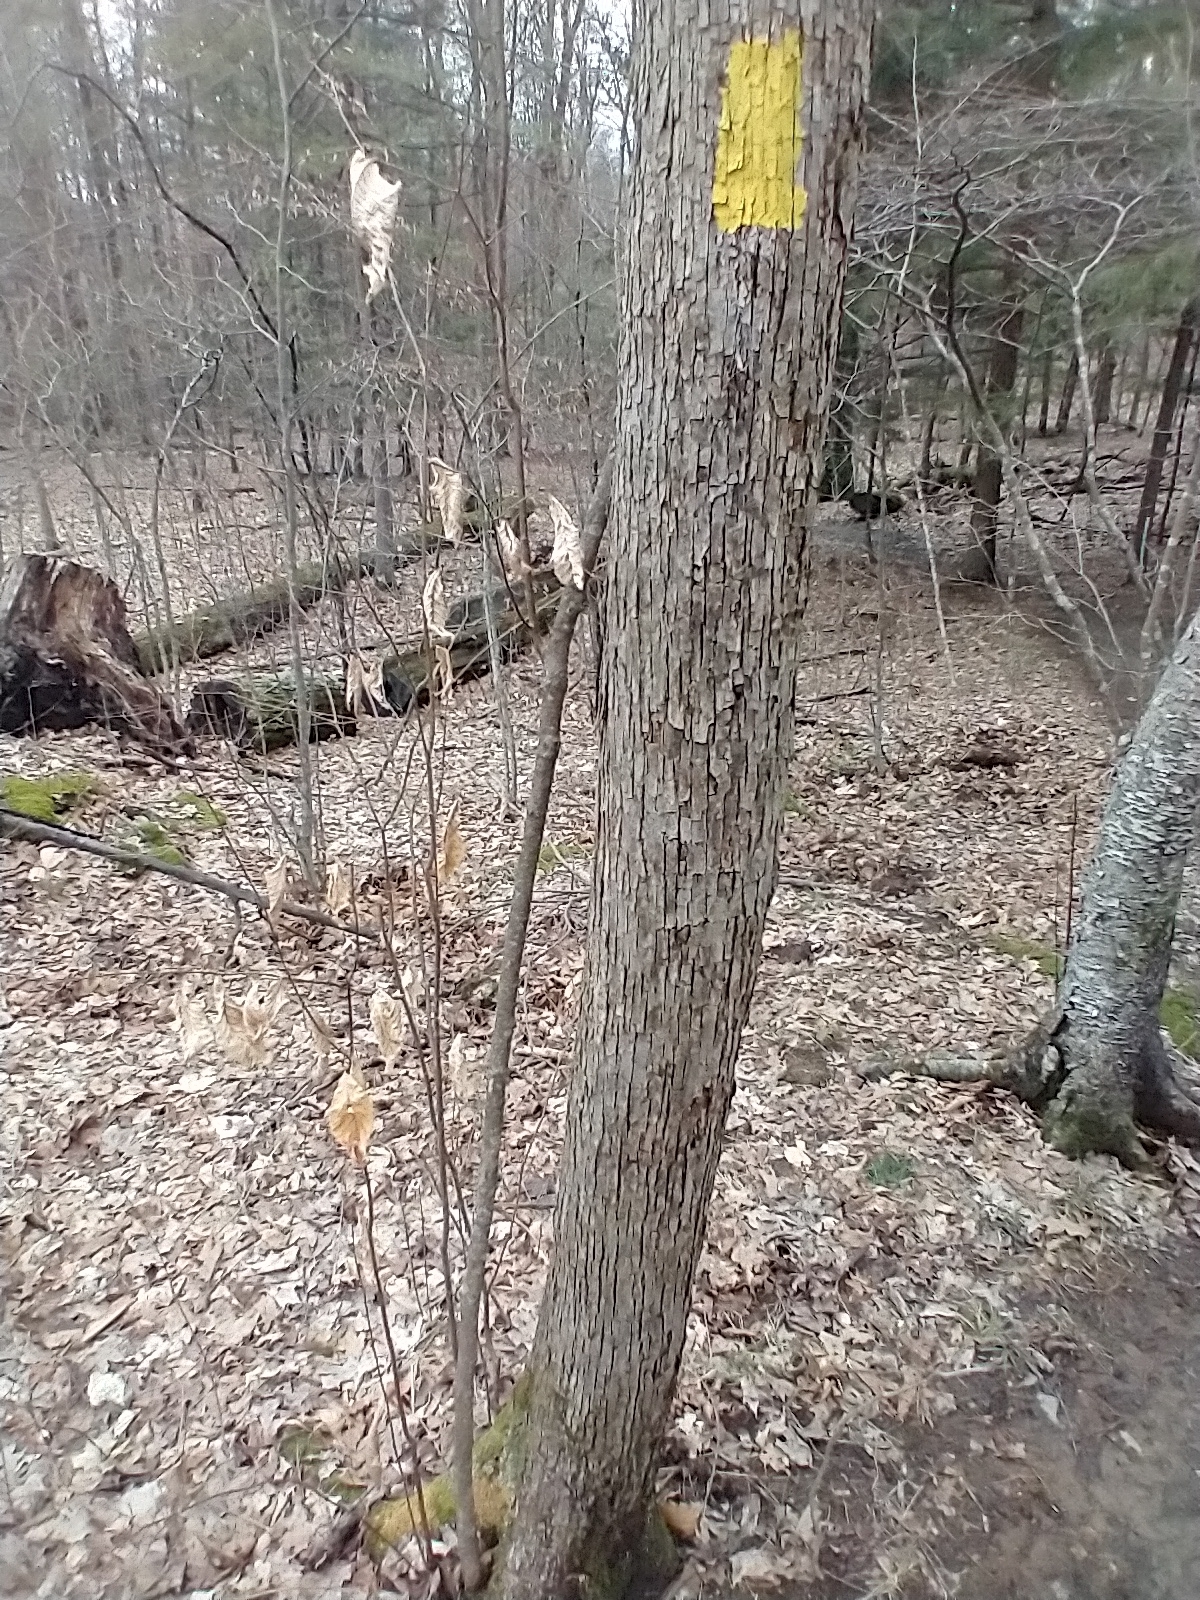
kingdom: Plantae
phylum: Tracheophyta
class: Magnoliopsida
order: Fagales
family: Betulaceae
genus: Ostrya
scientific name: Ostrya virginiana
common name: Ironwood
